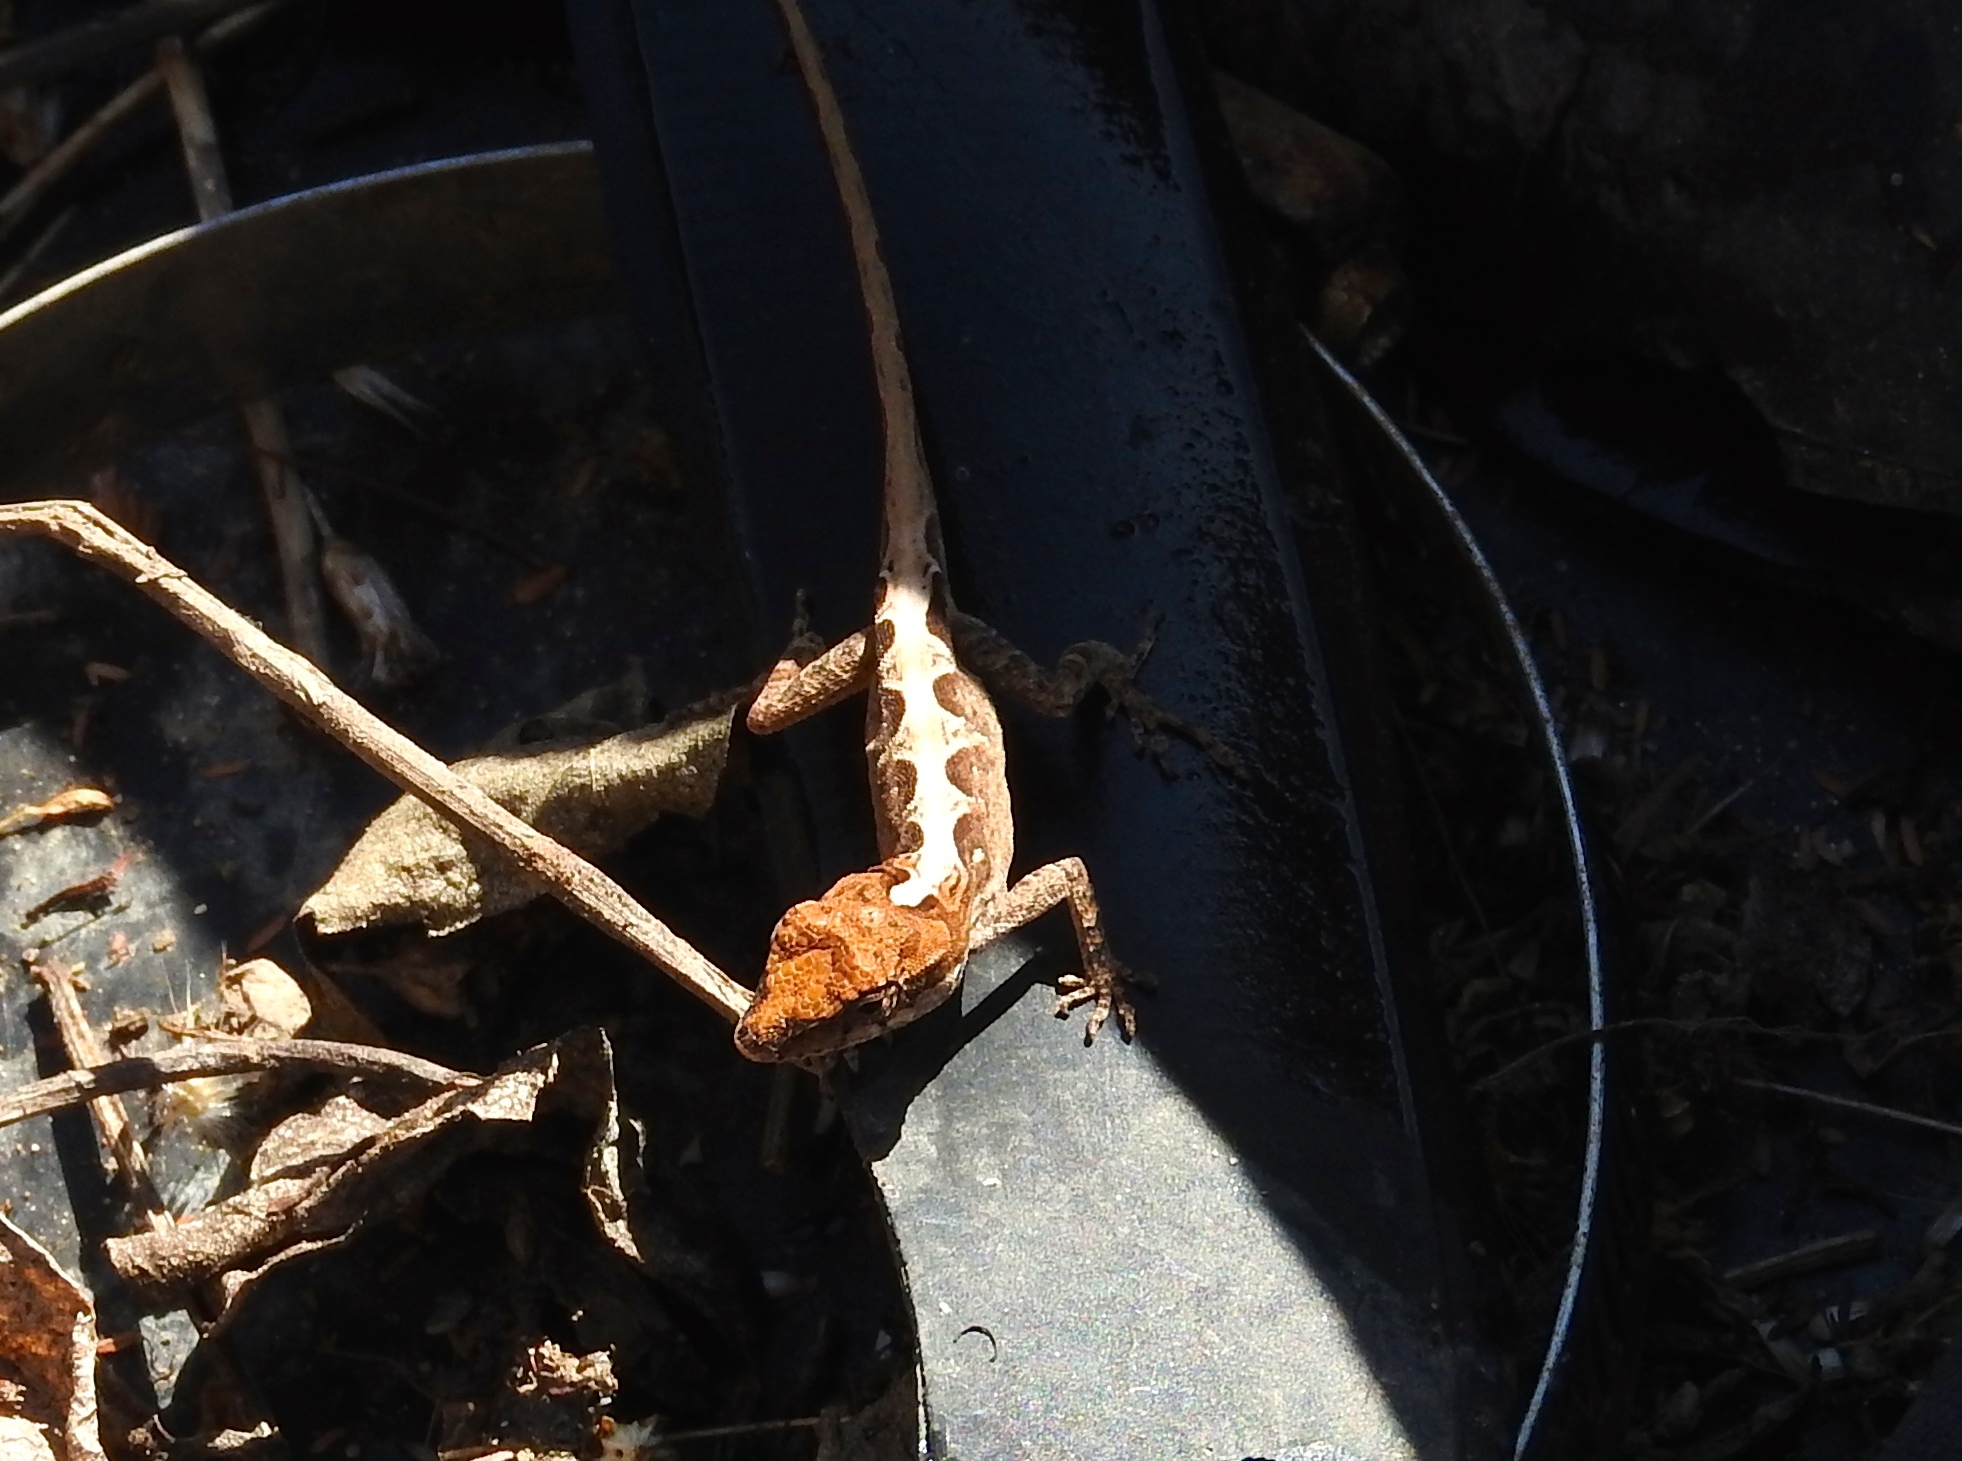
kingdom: Animalia
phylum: Chordata
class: Squamata
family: Dactyloidae
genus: Anolis
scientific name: Anolis nebulosus
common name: Clouded anole
